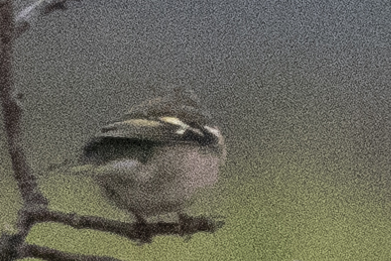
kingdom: Animalia
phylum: Chordata
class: Aves
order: Passeriformes
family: Fringillidae
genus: Fringilla
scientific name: Fringilla coelebs
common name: Common chaffinch
